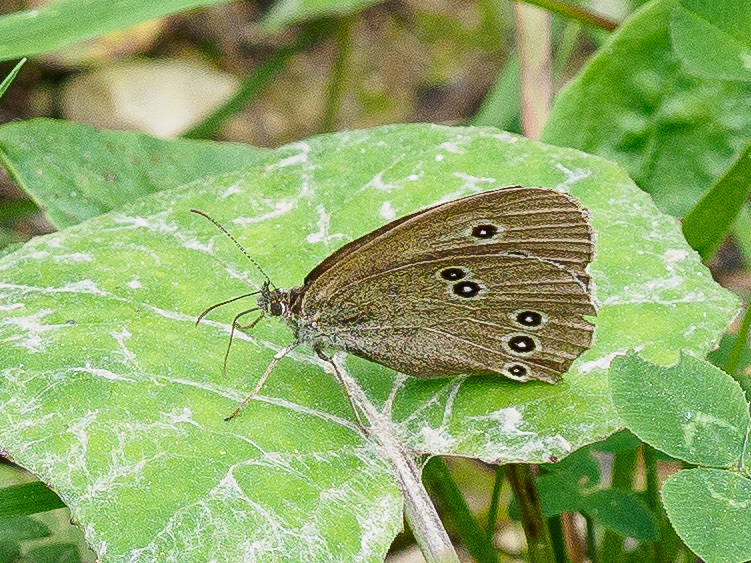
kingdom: Animalia
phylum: Arthropoda
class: Insecta
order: Lepidoptera
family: Nymphalidae
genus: Aphantopus
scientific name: Aphantopus hyperantus
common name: Ringlet
